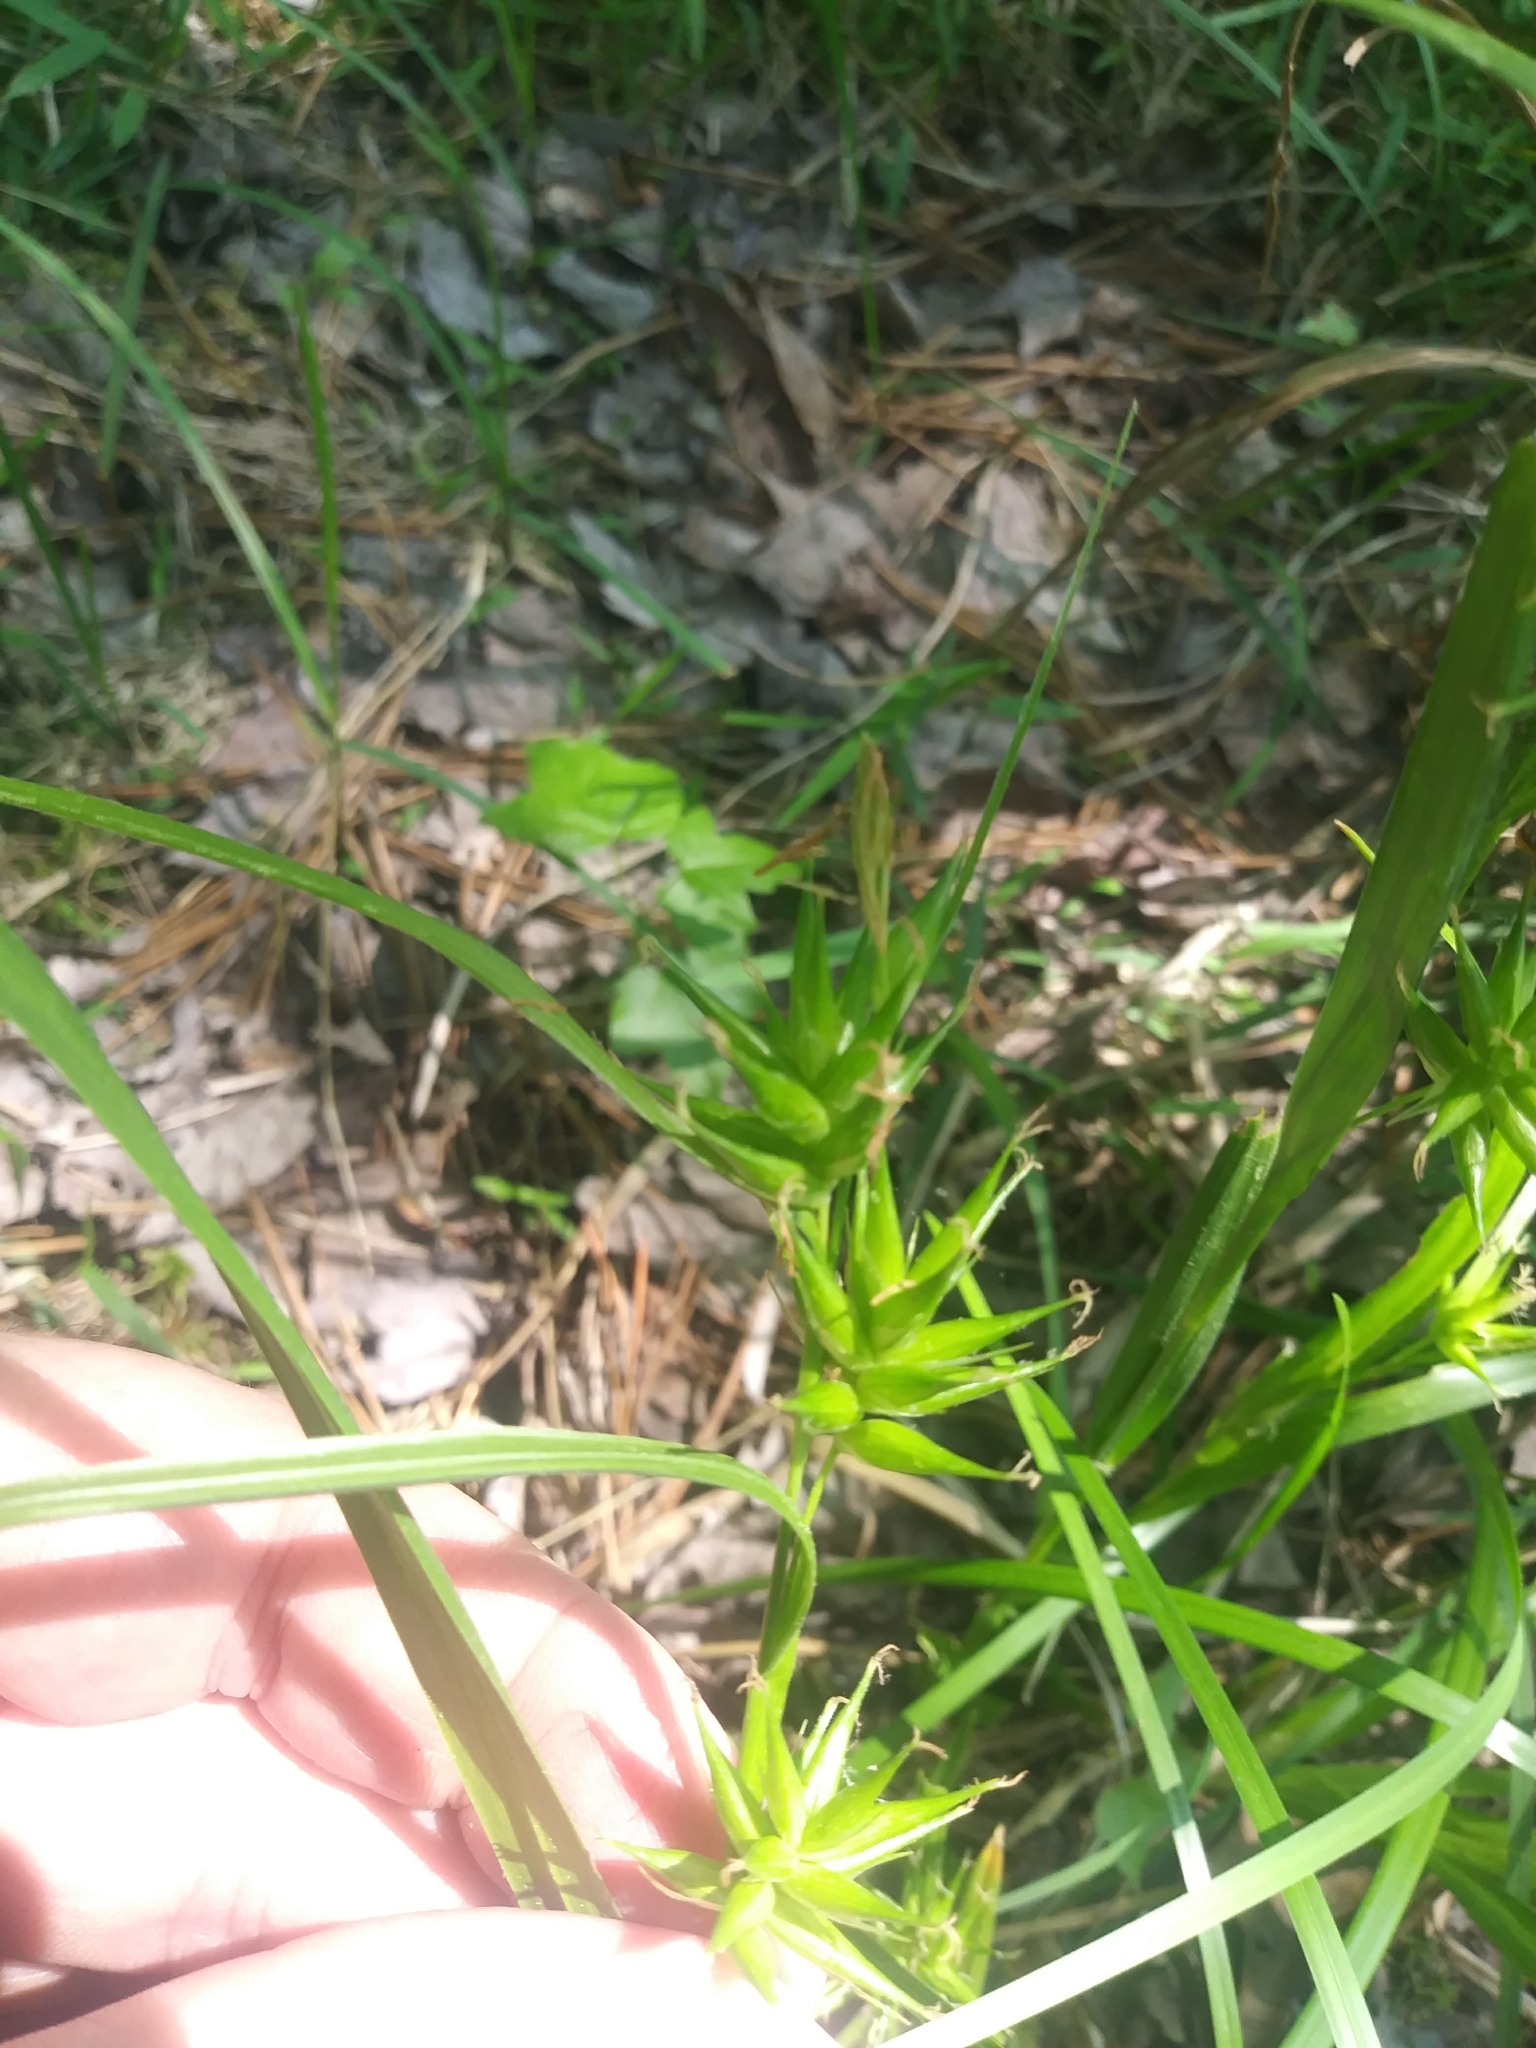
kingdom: Plantae
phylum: Tracheophyta
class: Liliopsida
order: Poales
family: Cyperaceae
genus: Carex
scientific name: Carex folliculata
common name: Northern long sedge
